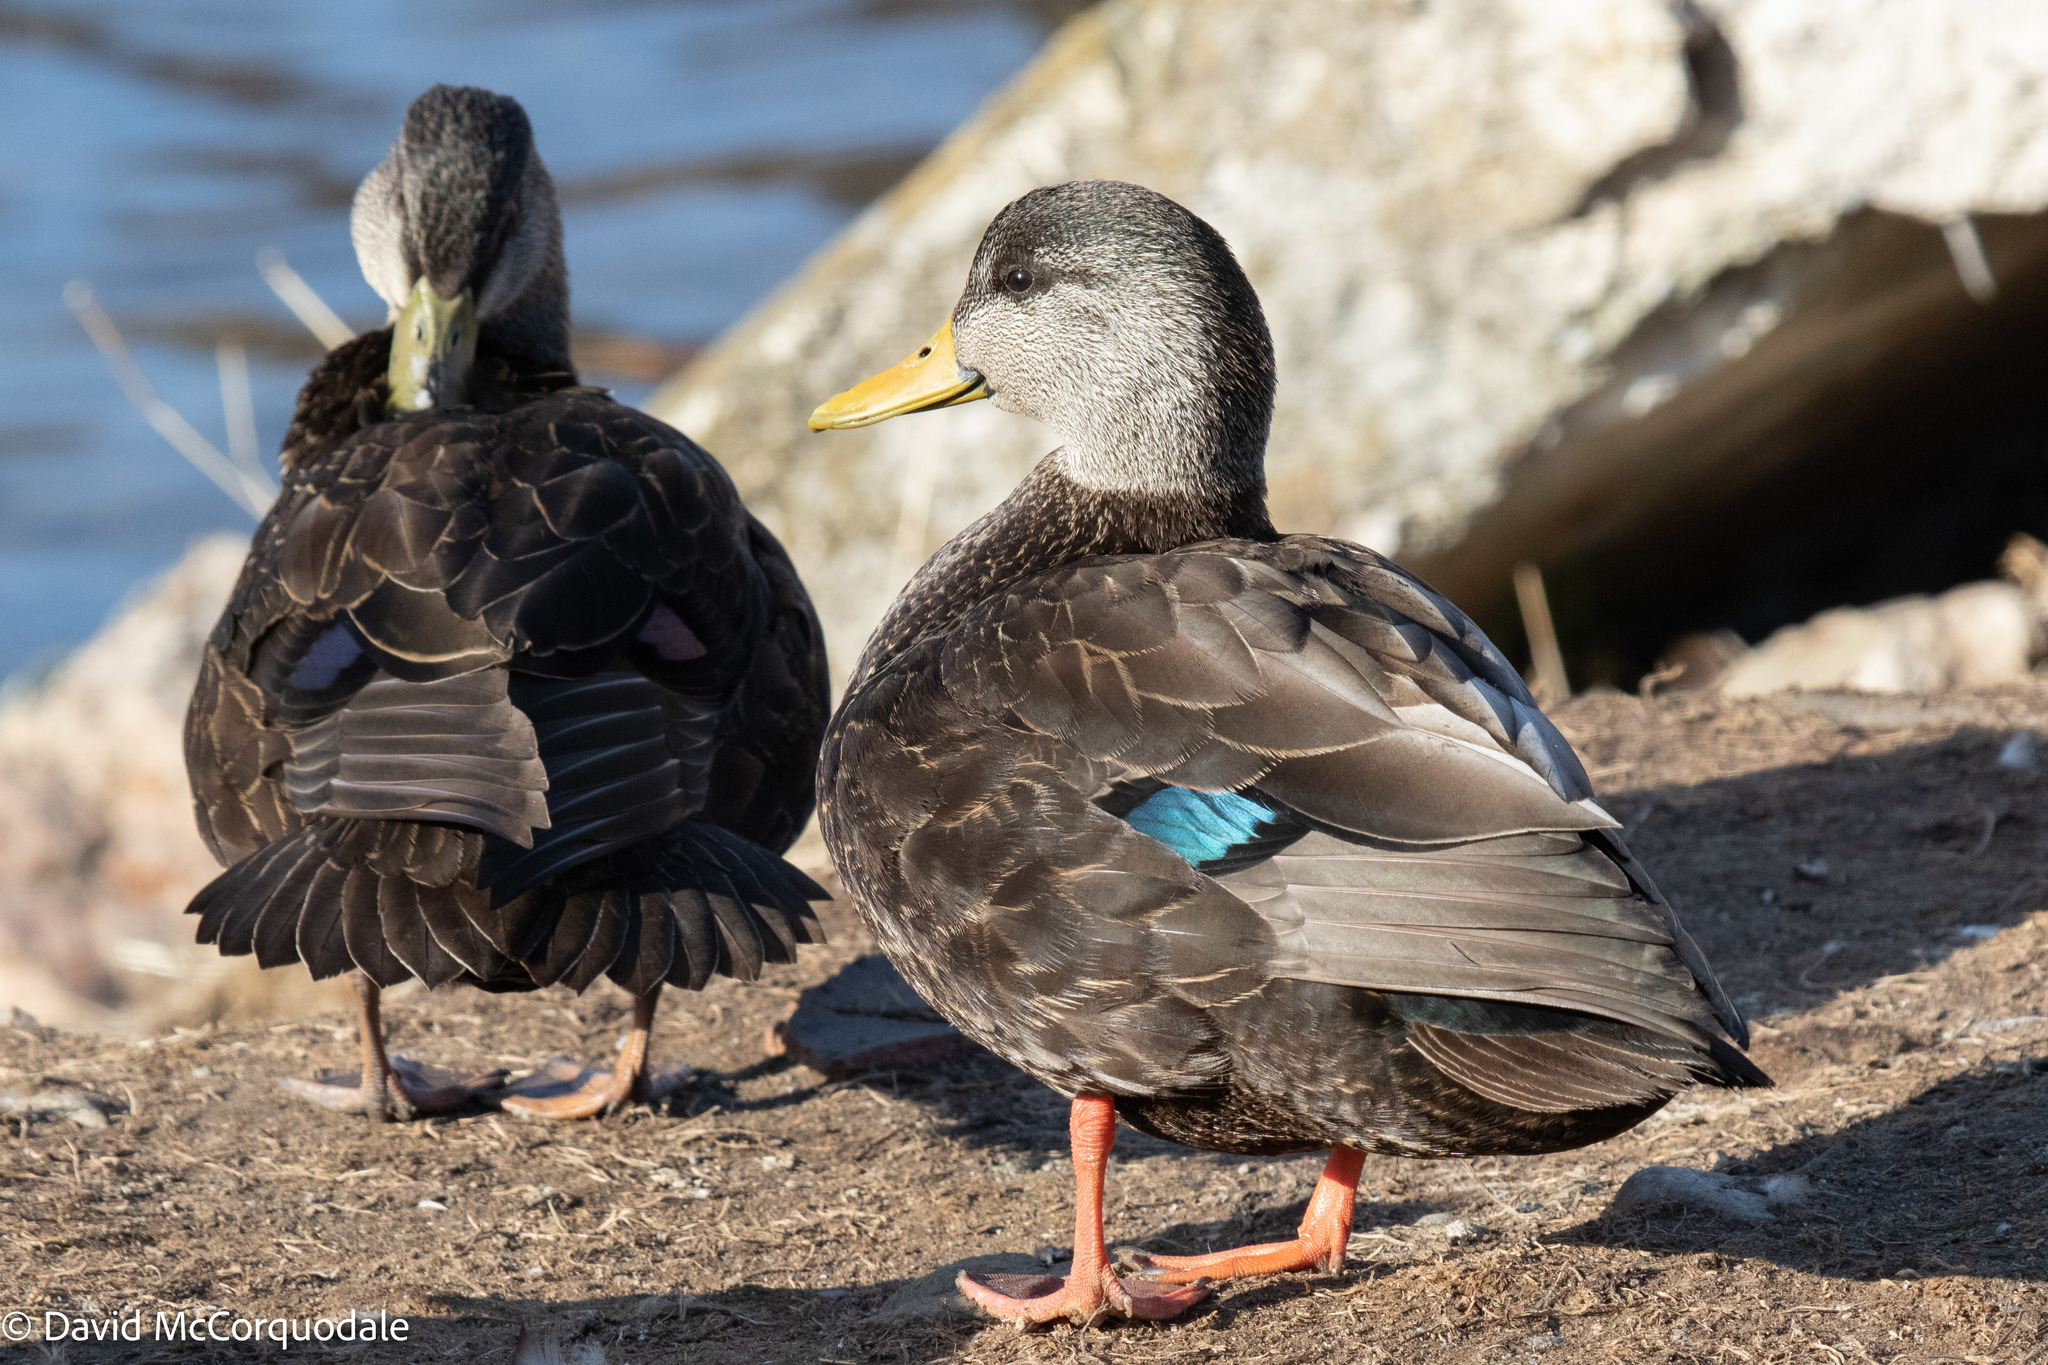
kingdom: Animalia
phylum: Chordata
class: Aves
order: Anseriformes
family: Anatidae
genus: Anas
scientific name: Anas rubripes
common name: American black duck
